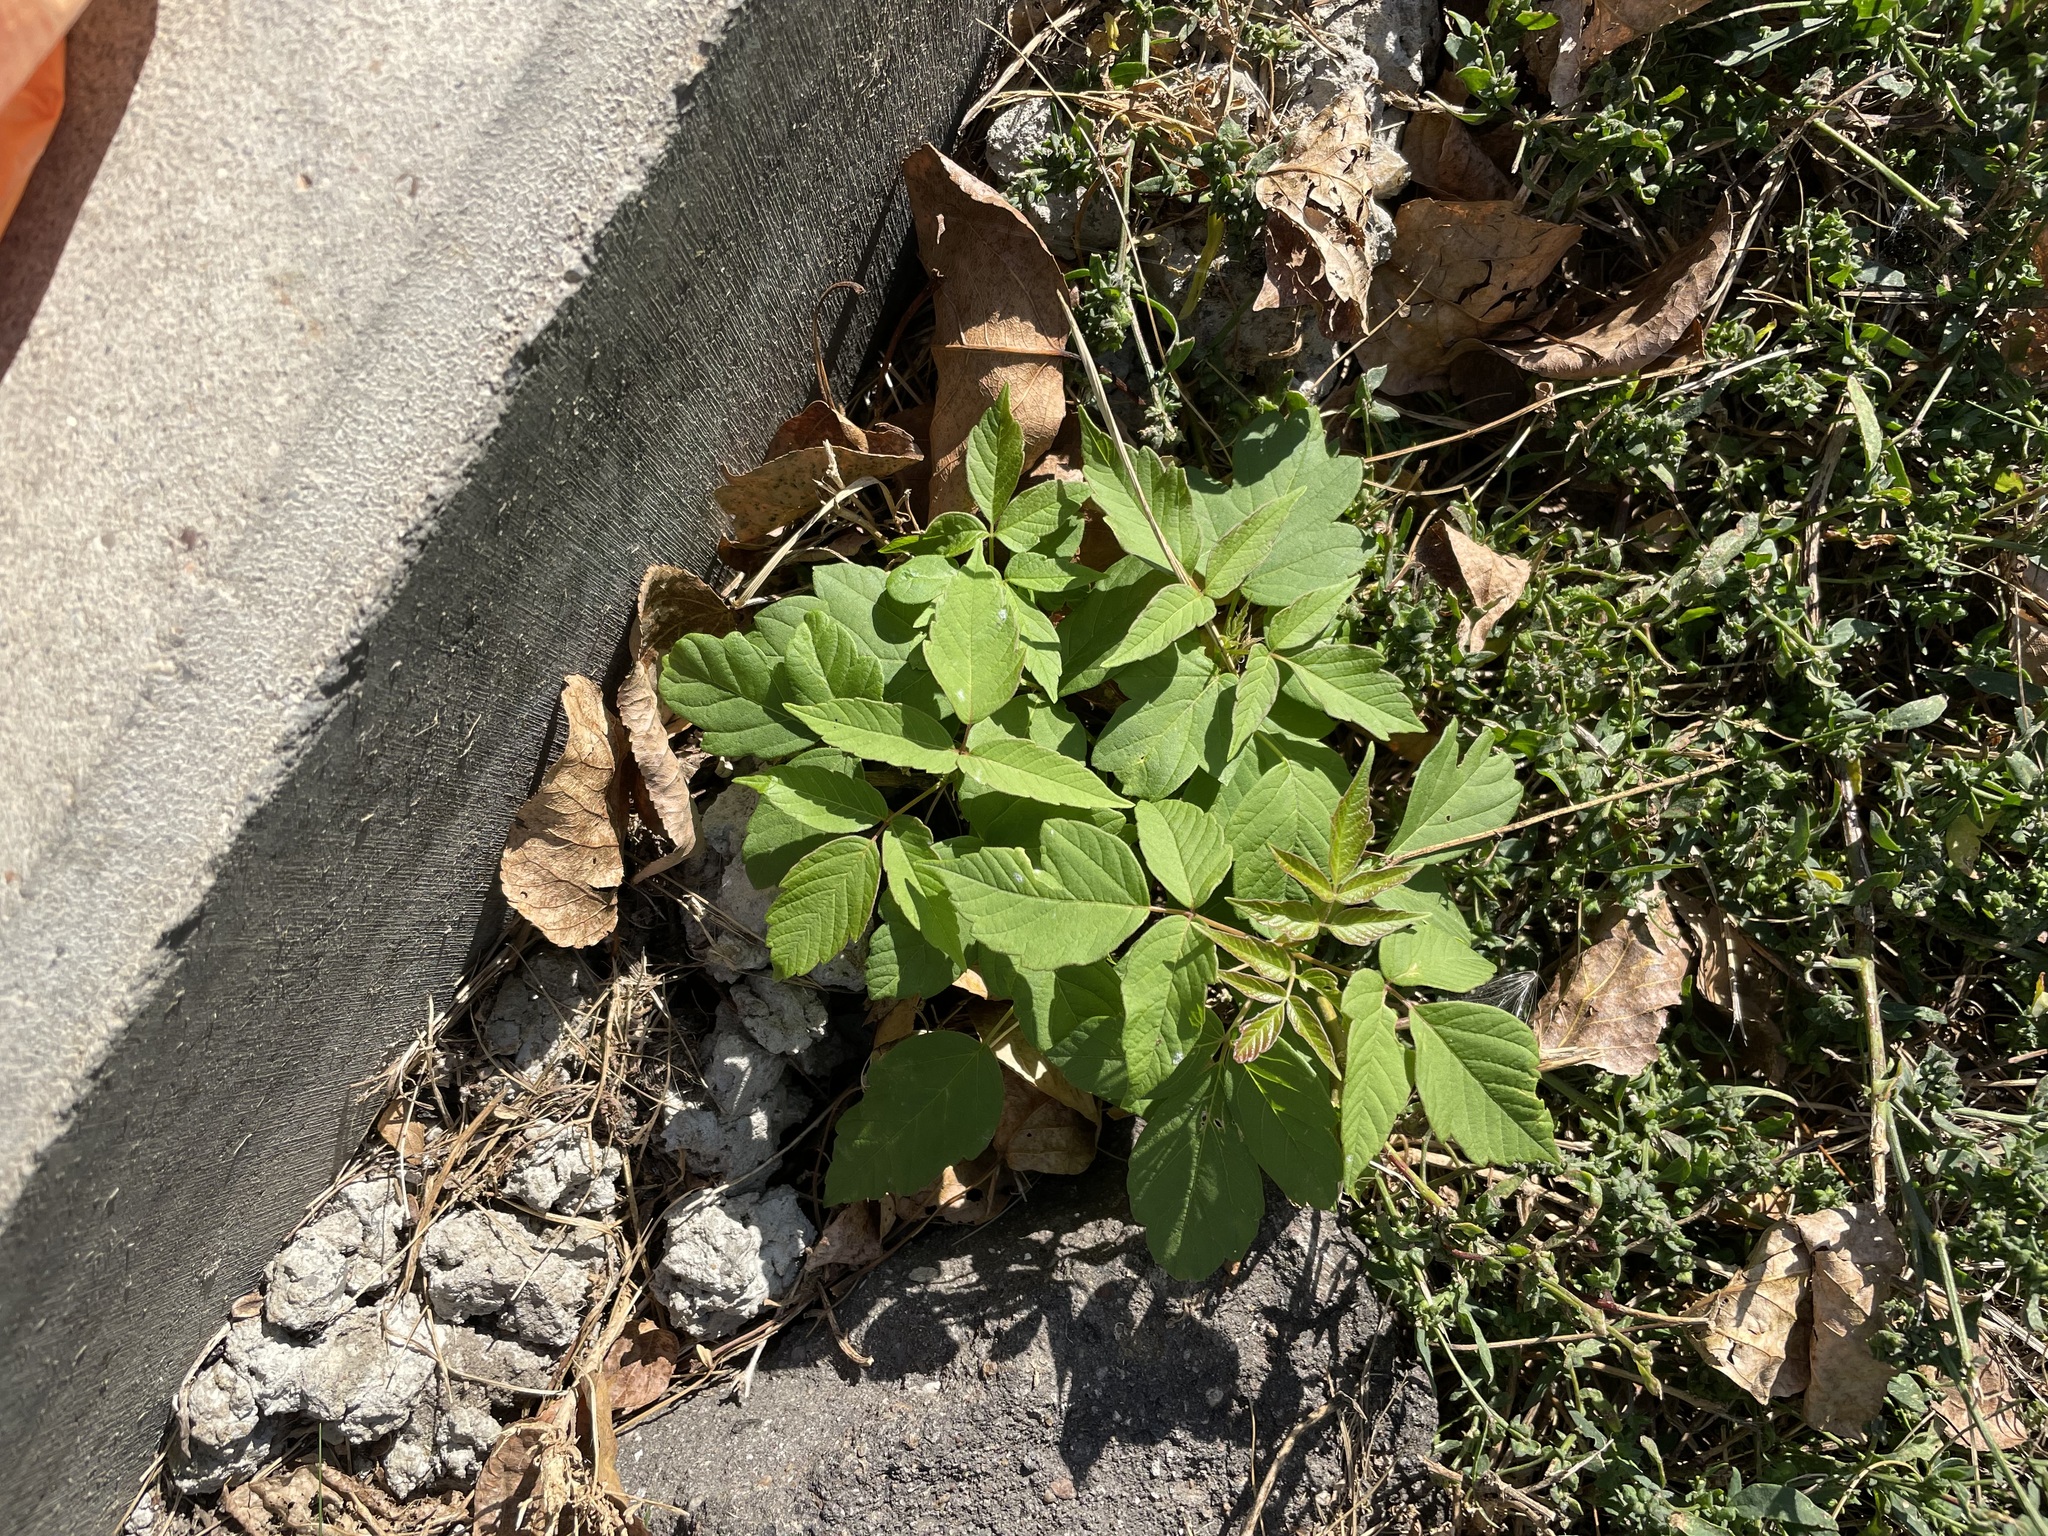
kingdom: Plantae
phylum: Tracheophyta
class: Magnoliopsida
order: Sapindales
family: Sapindaceae
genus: Acer
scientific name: Acer negundo
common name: Ashleaf maple
